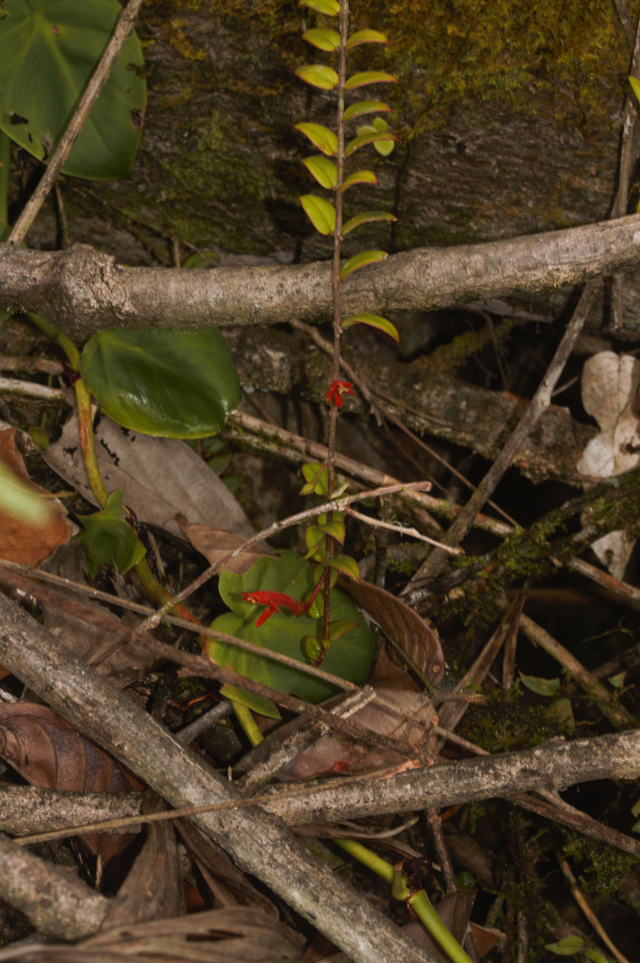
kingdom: Plantae
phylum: Tracheophyta
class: Magnoliopsida
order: Lamiales
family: Gesneriaceae
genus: Columnea
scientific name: Columnea oerstediana
